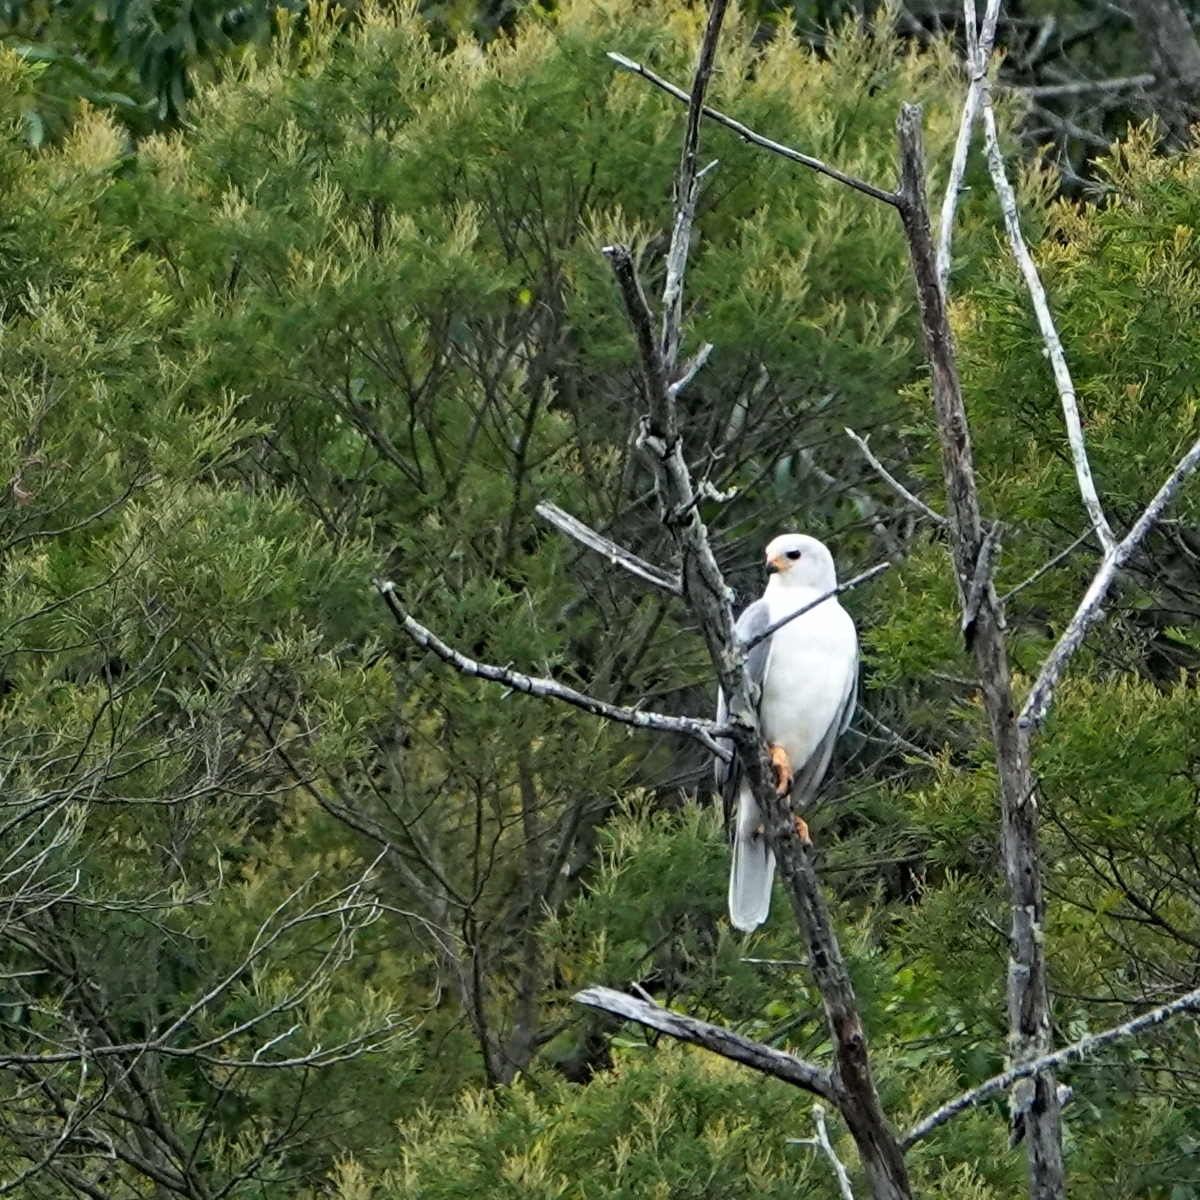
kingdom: Animalia
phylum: Chordata
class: Aves
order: Accipitriformes
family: Accipitridae
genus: Accipiter
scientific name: Accipiter novaehollandiae
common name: Grey goshawk
